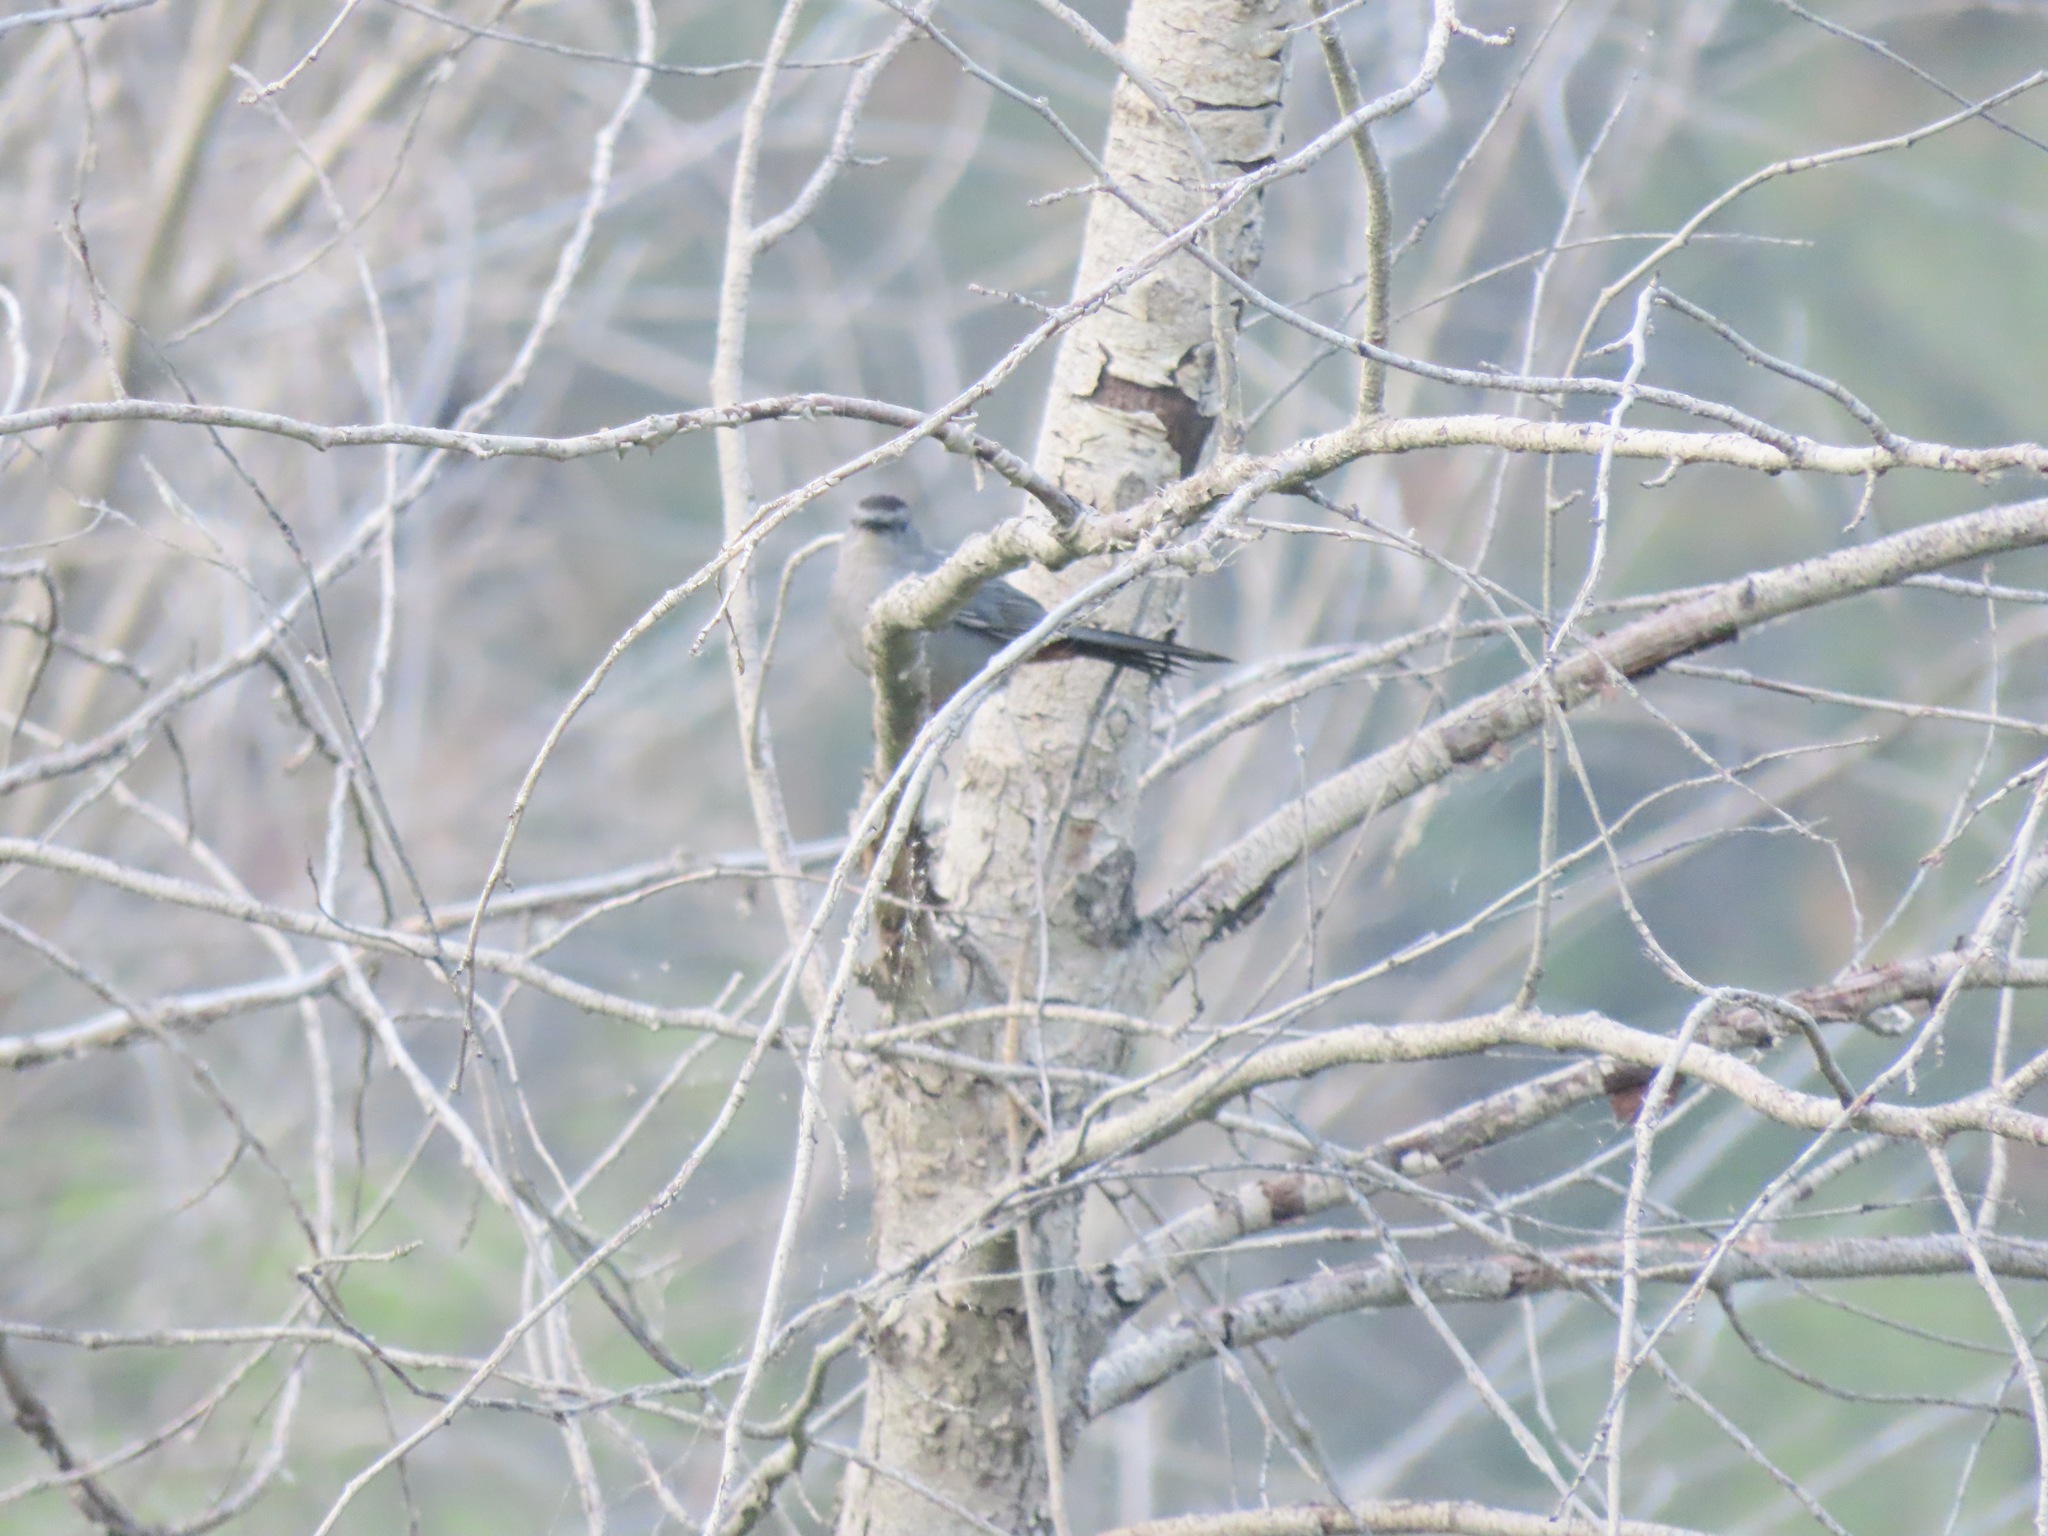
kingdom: Animalia
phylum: Chordata
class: Aves
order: Passeriformes
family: Mimidae
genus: Dumetella
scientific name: Dumetella carolinensis
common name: Gray catbird
